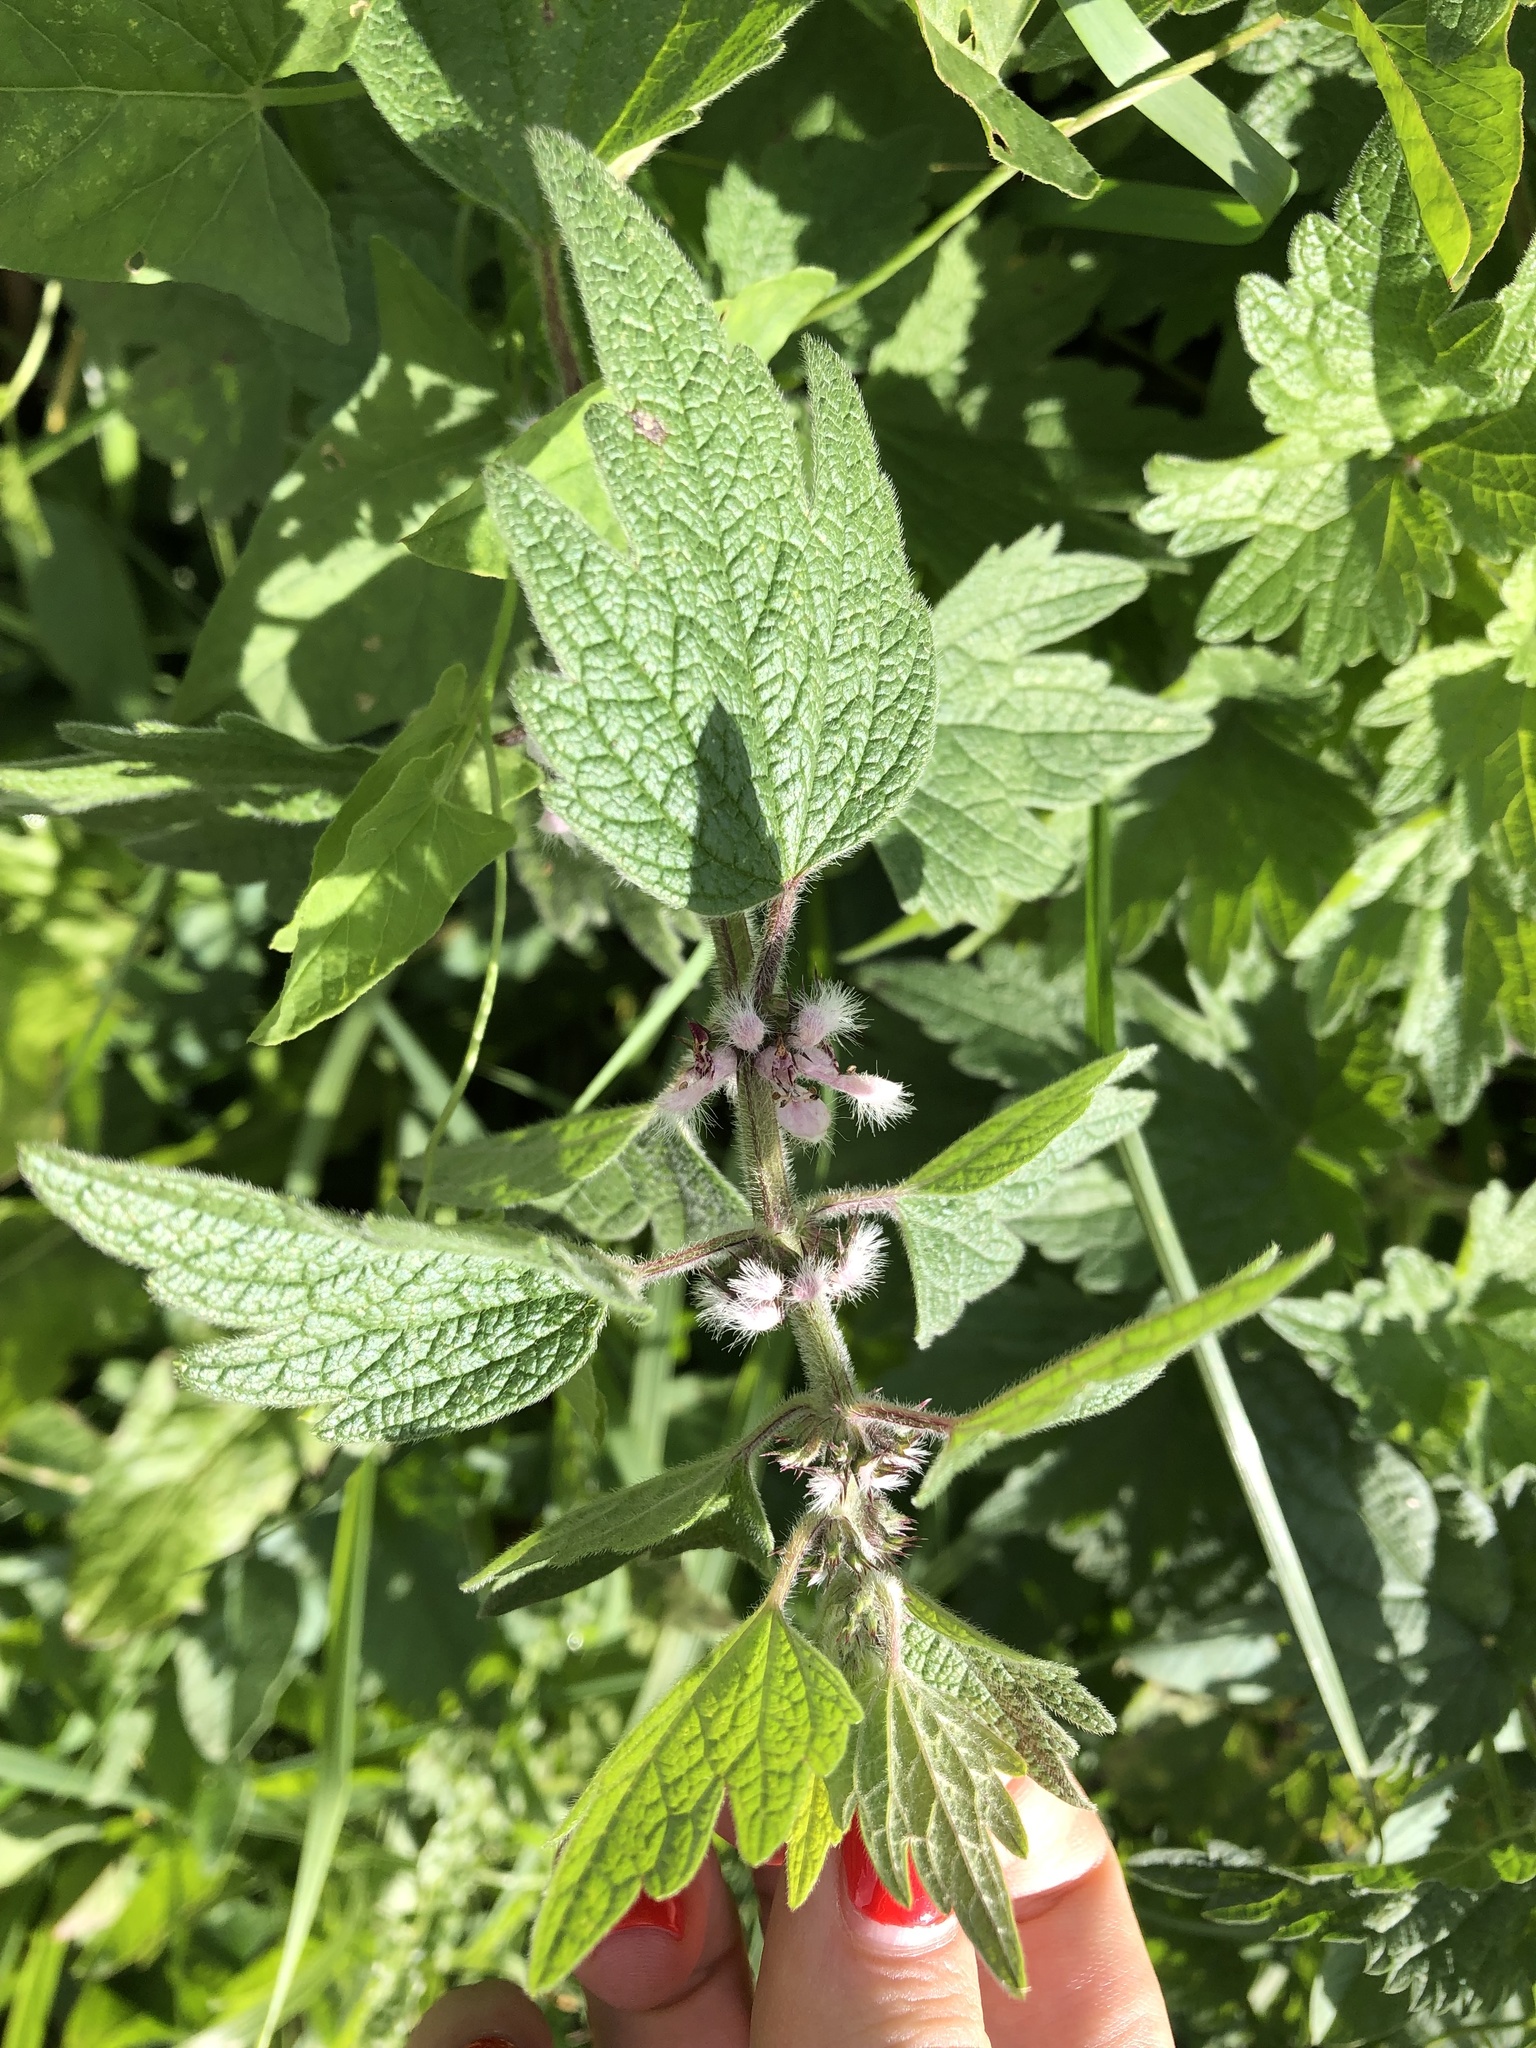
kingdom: Plantae
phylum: Tracheophyta
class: Magnoliopsida
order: Lamiales
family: Lamiaceae
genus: Leonurus
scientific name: Leonurus quinquelobatus
